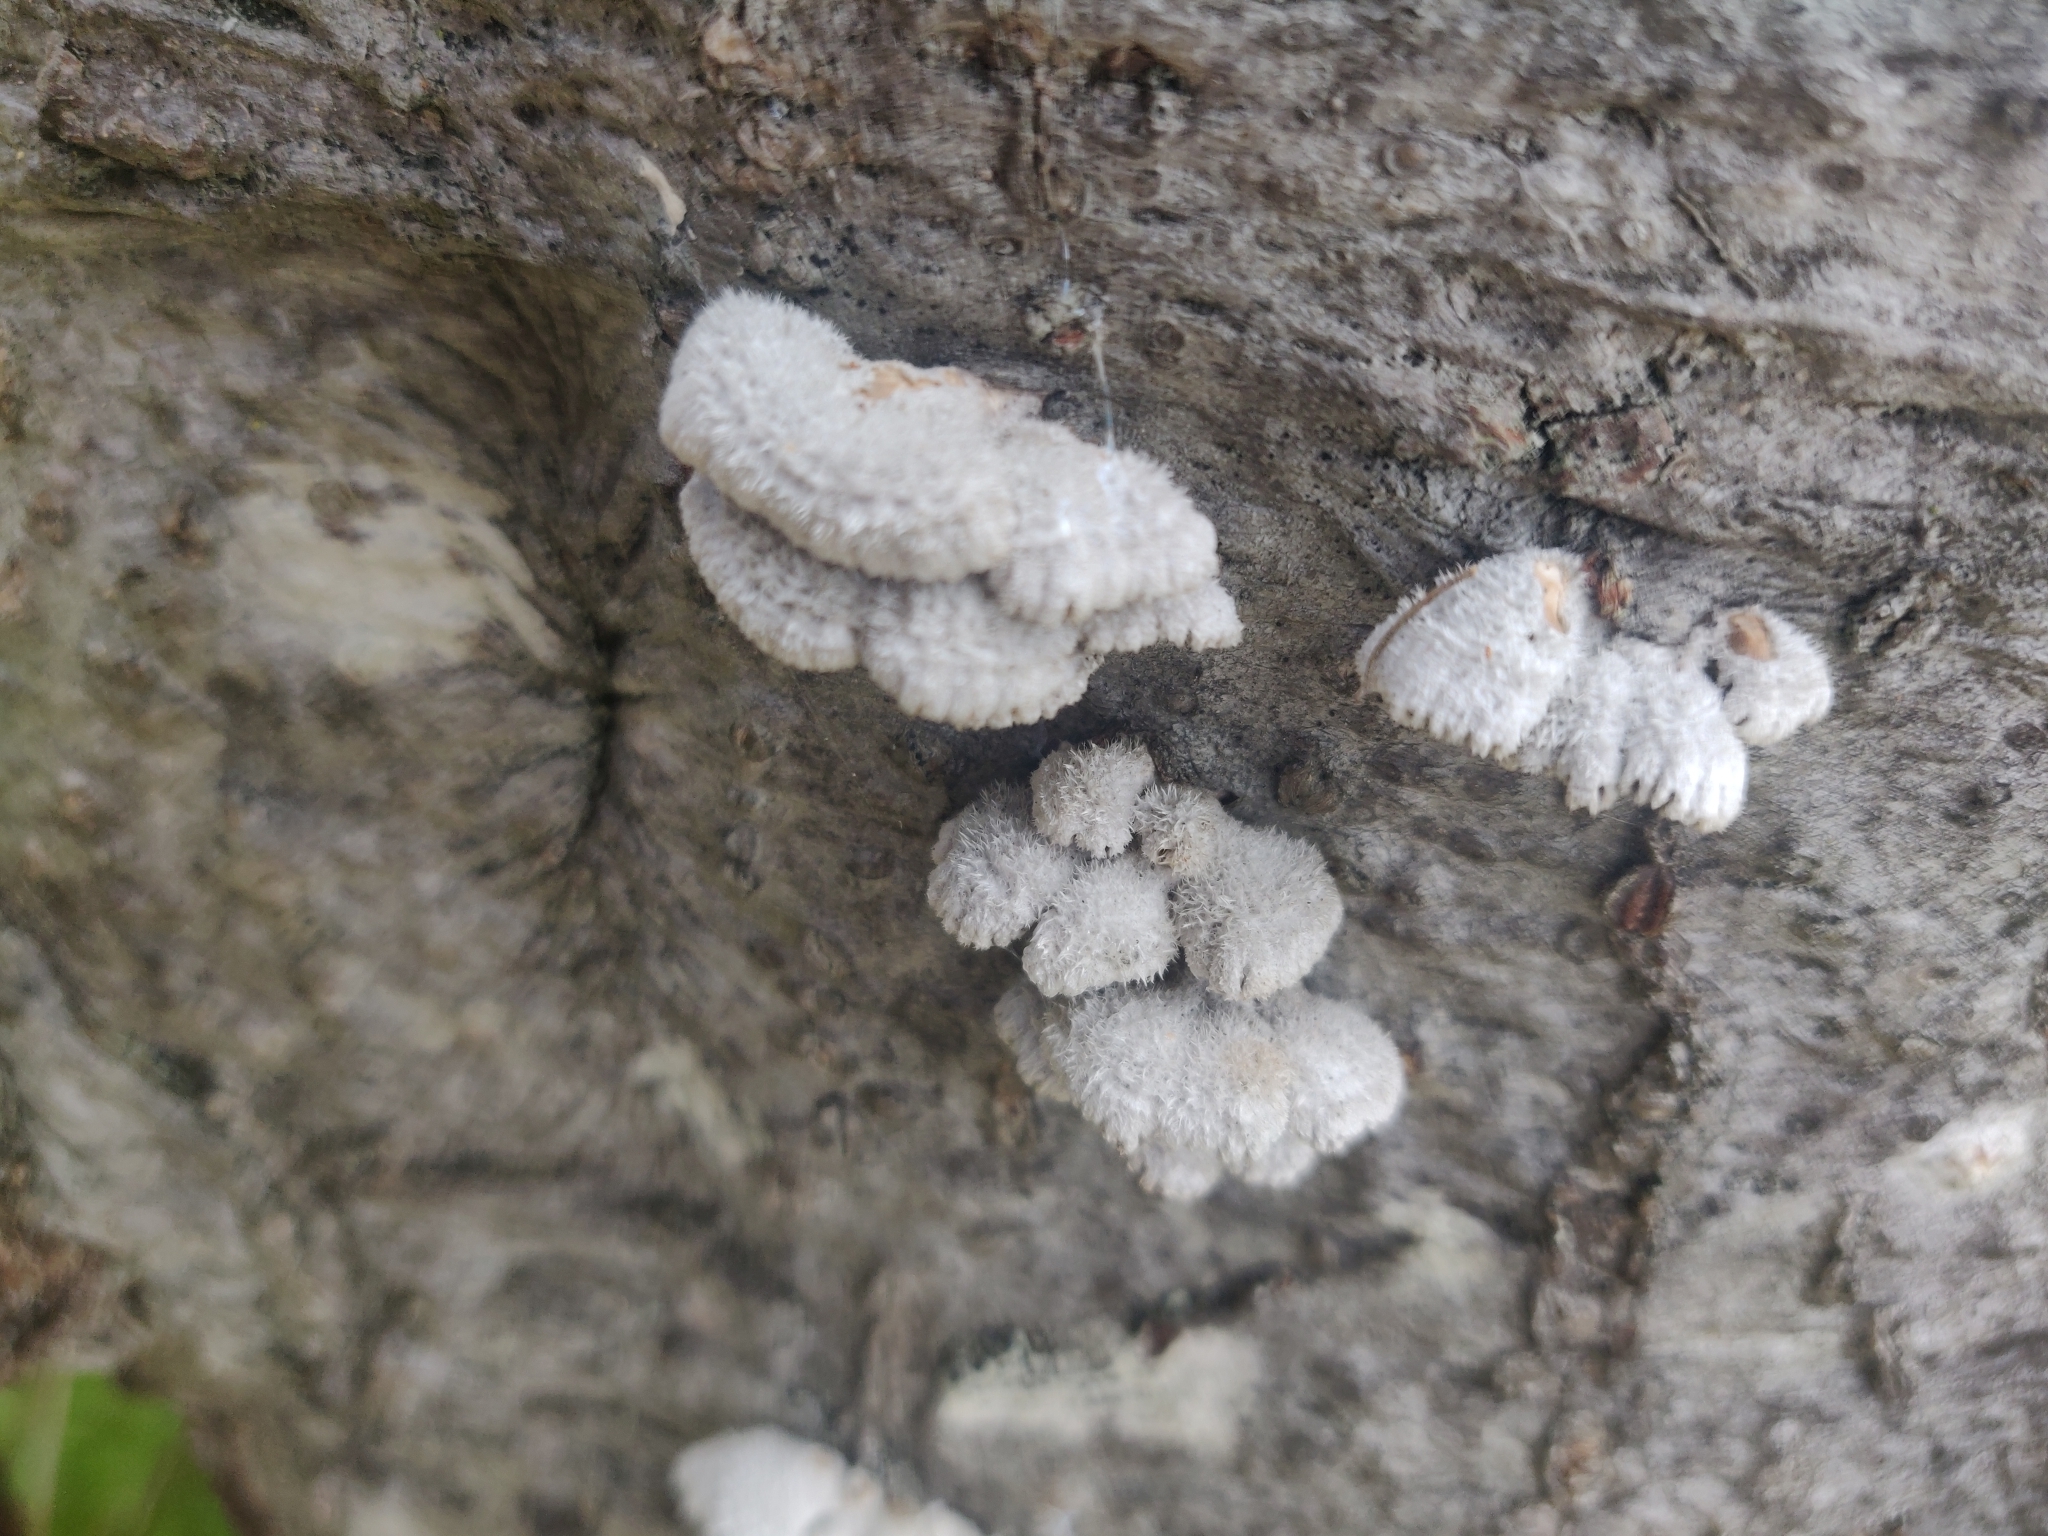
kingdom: Fungi
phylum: Basidiomycota
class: Agaricomycetes
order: Agaricales
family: Schizophyllaceae
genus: Schizophyllum
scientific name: Schizophyllum commune
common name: Common porecrust
